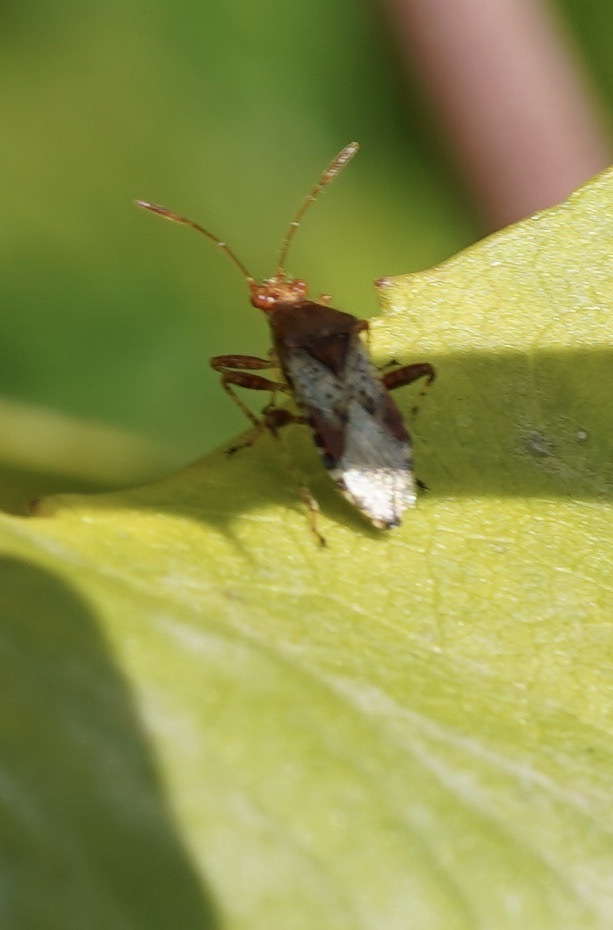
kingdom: Animalia
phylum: Arthropoda
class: Insecta
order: Hemiptera
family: Rhopalidae
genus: Rhopalus
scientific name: Rhopalus subrufus
